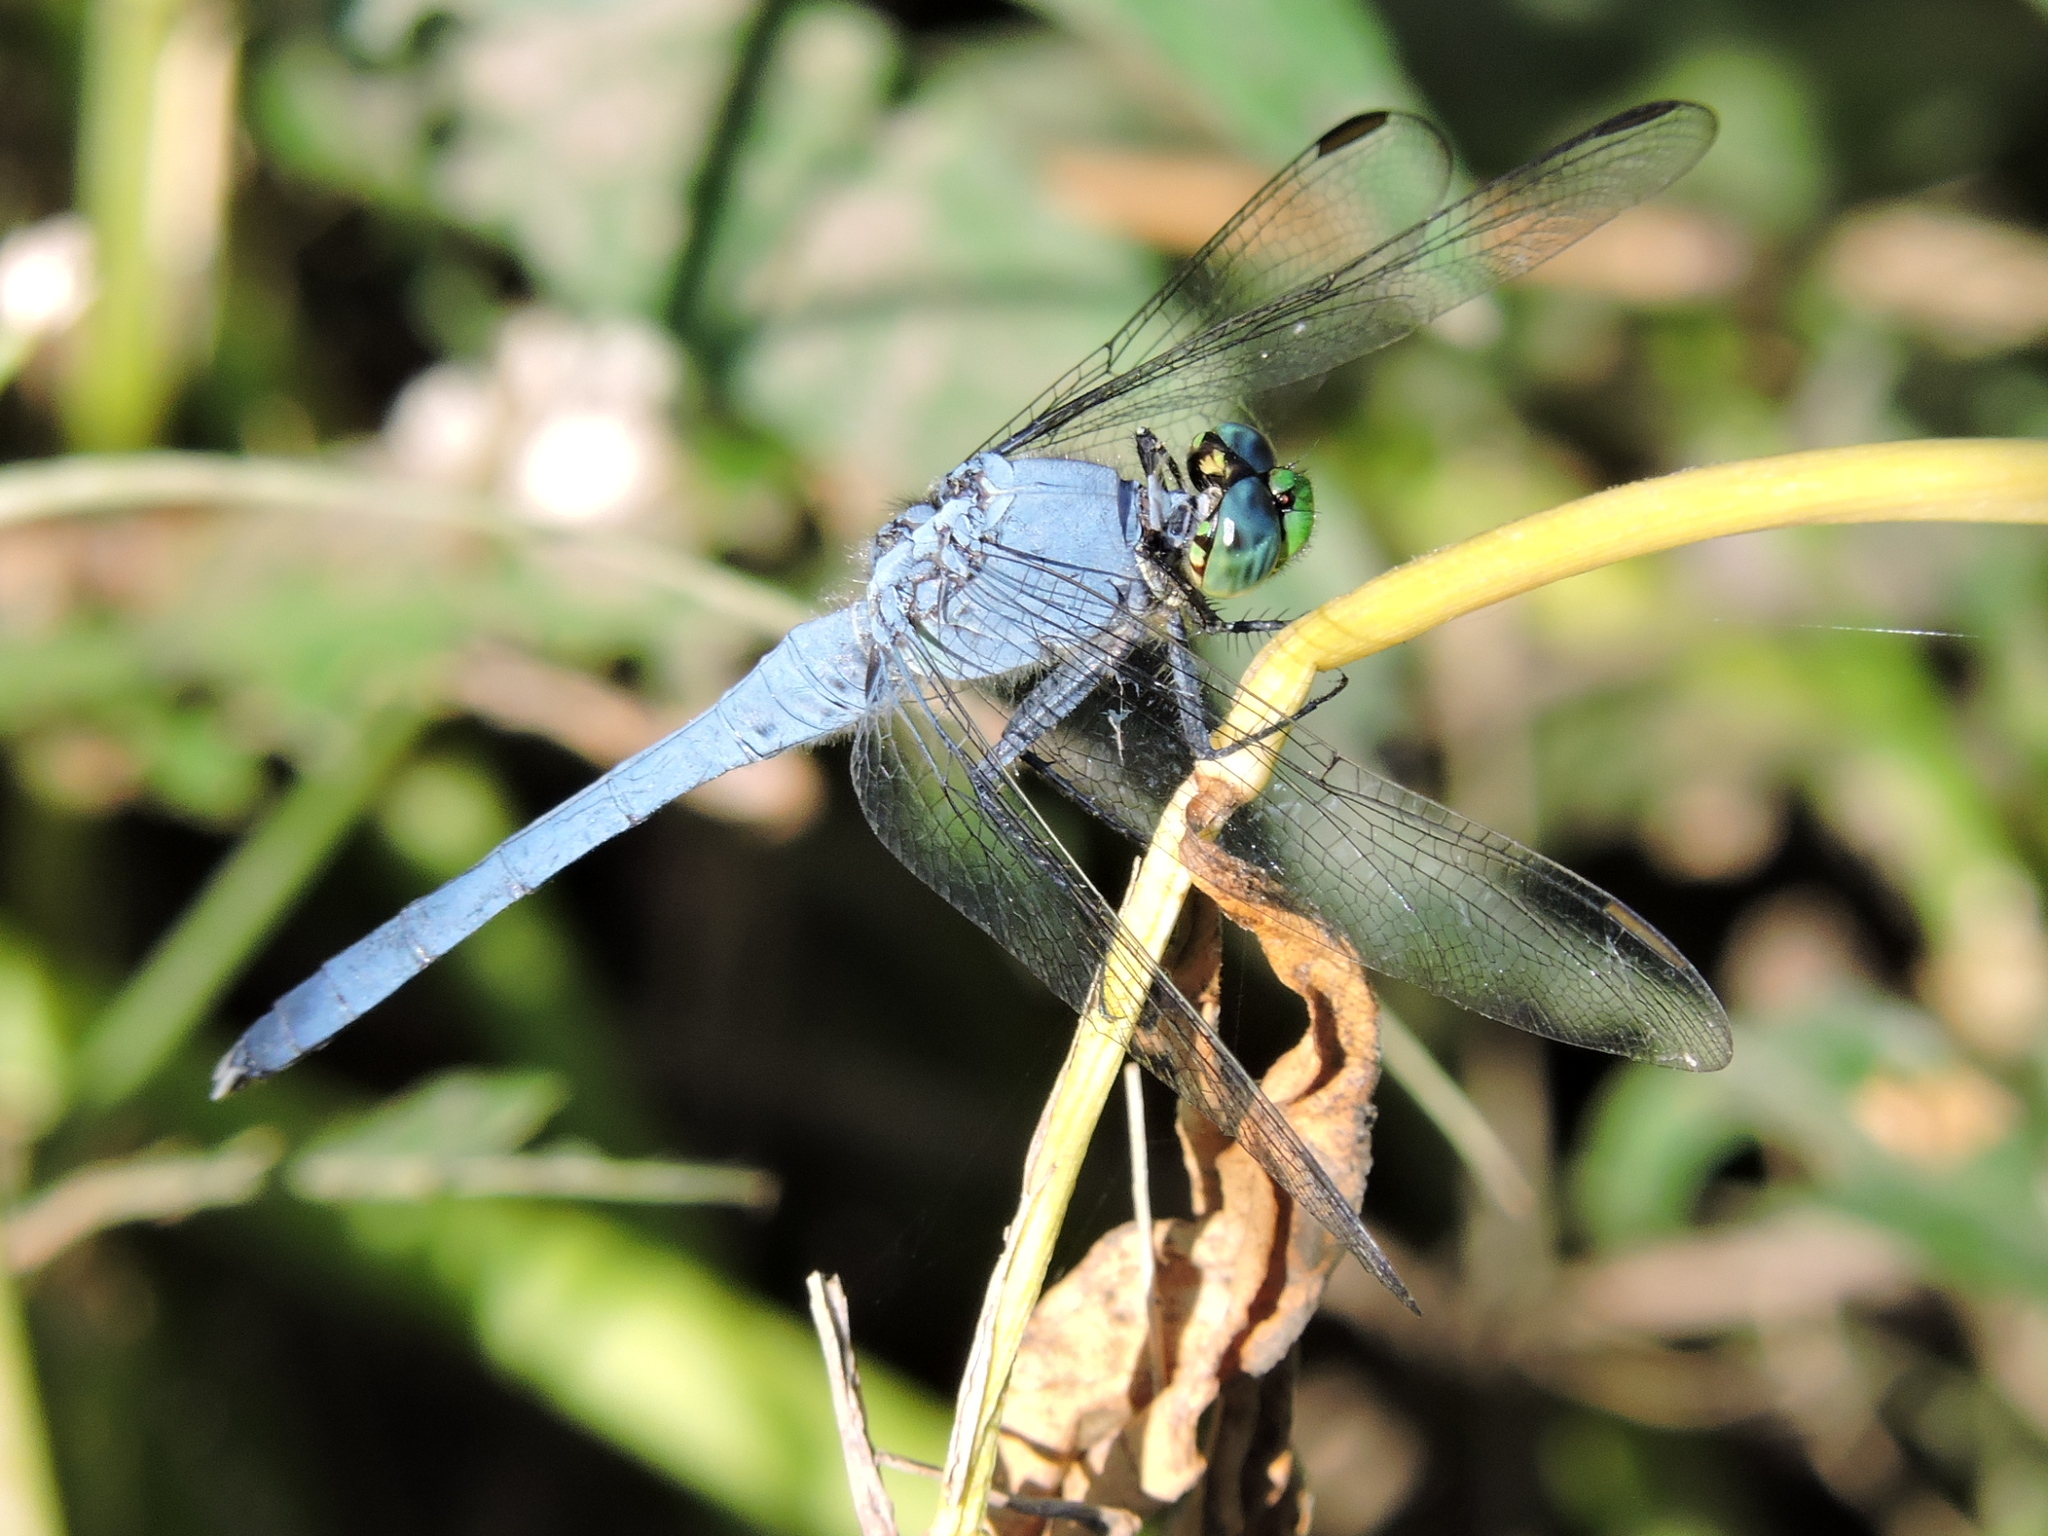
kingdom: Animalia
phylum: Arthropoda
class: Insecta
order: Odonata
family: Libellulidae
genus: Erythemis
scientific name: Erythemis simplicicollis
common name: Eastern pondhawk
